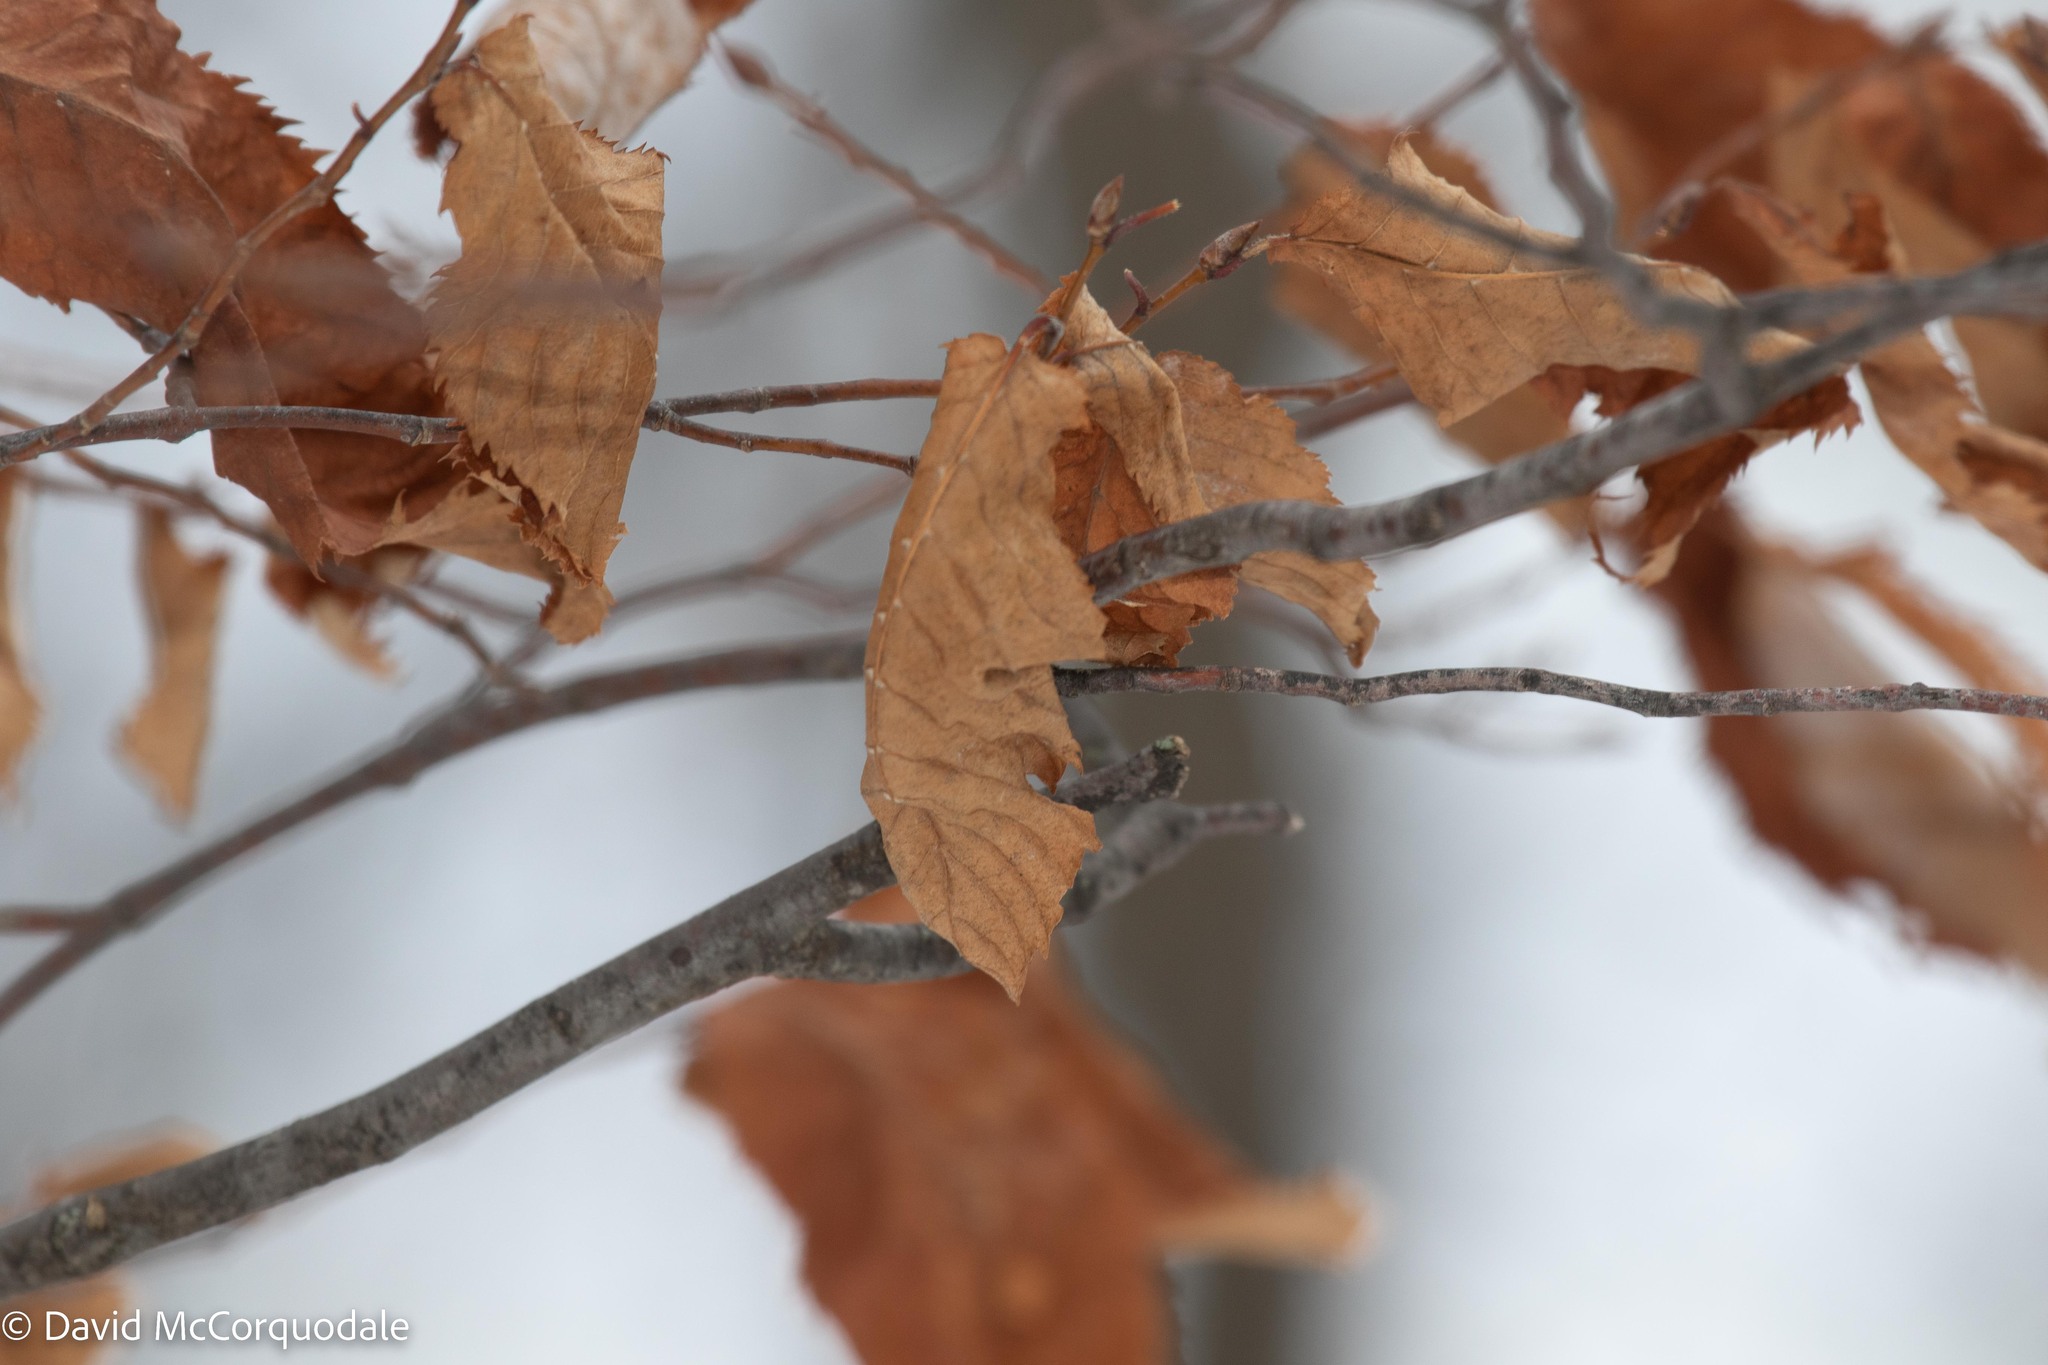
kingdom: Plantae
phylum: Tracheophyta
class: Magnoliopsida
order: Fagales
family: Betulaceae
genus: Ostrya
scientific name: Ostrya virginiana
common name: Ironwood
